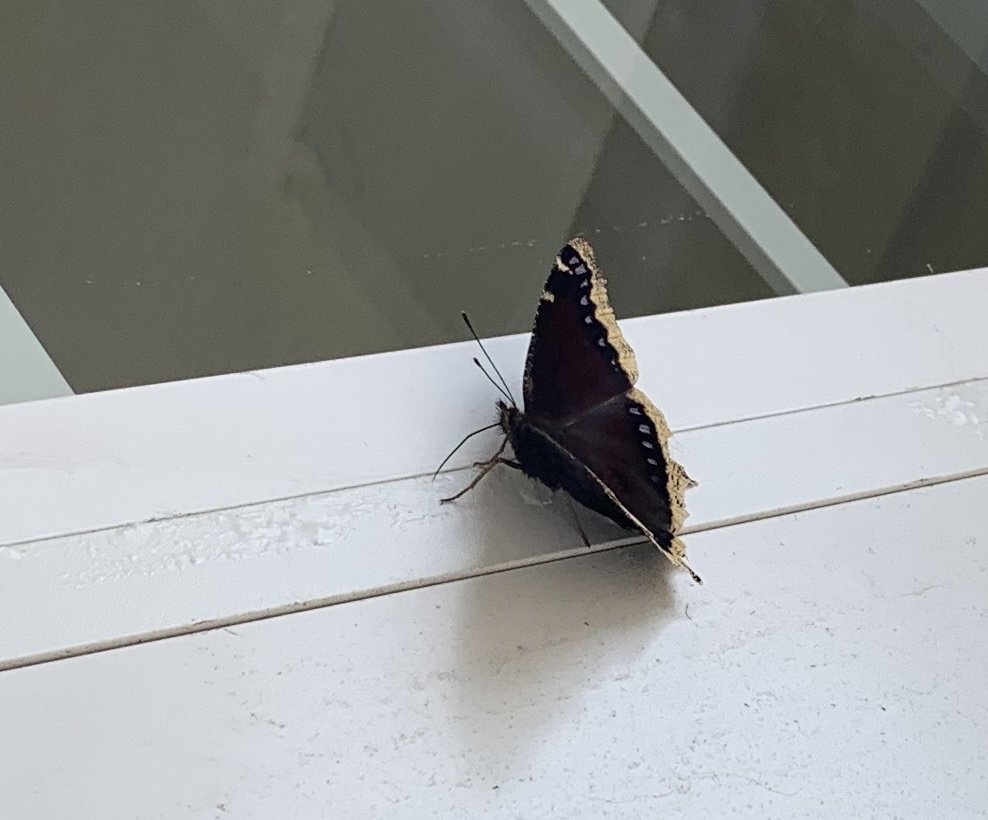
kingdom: Animalia
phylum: Arthropoda
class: Insecta
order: Lepidoptera
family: Nymphalidae
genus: Nymphalis
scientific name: Nymphalis antiopa
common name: Camberwell beauty
